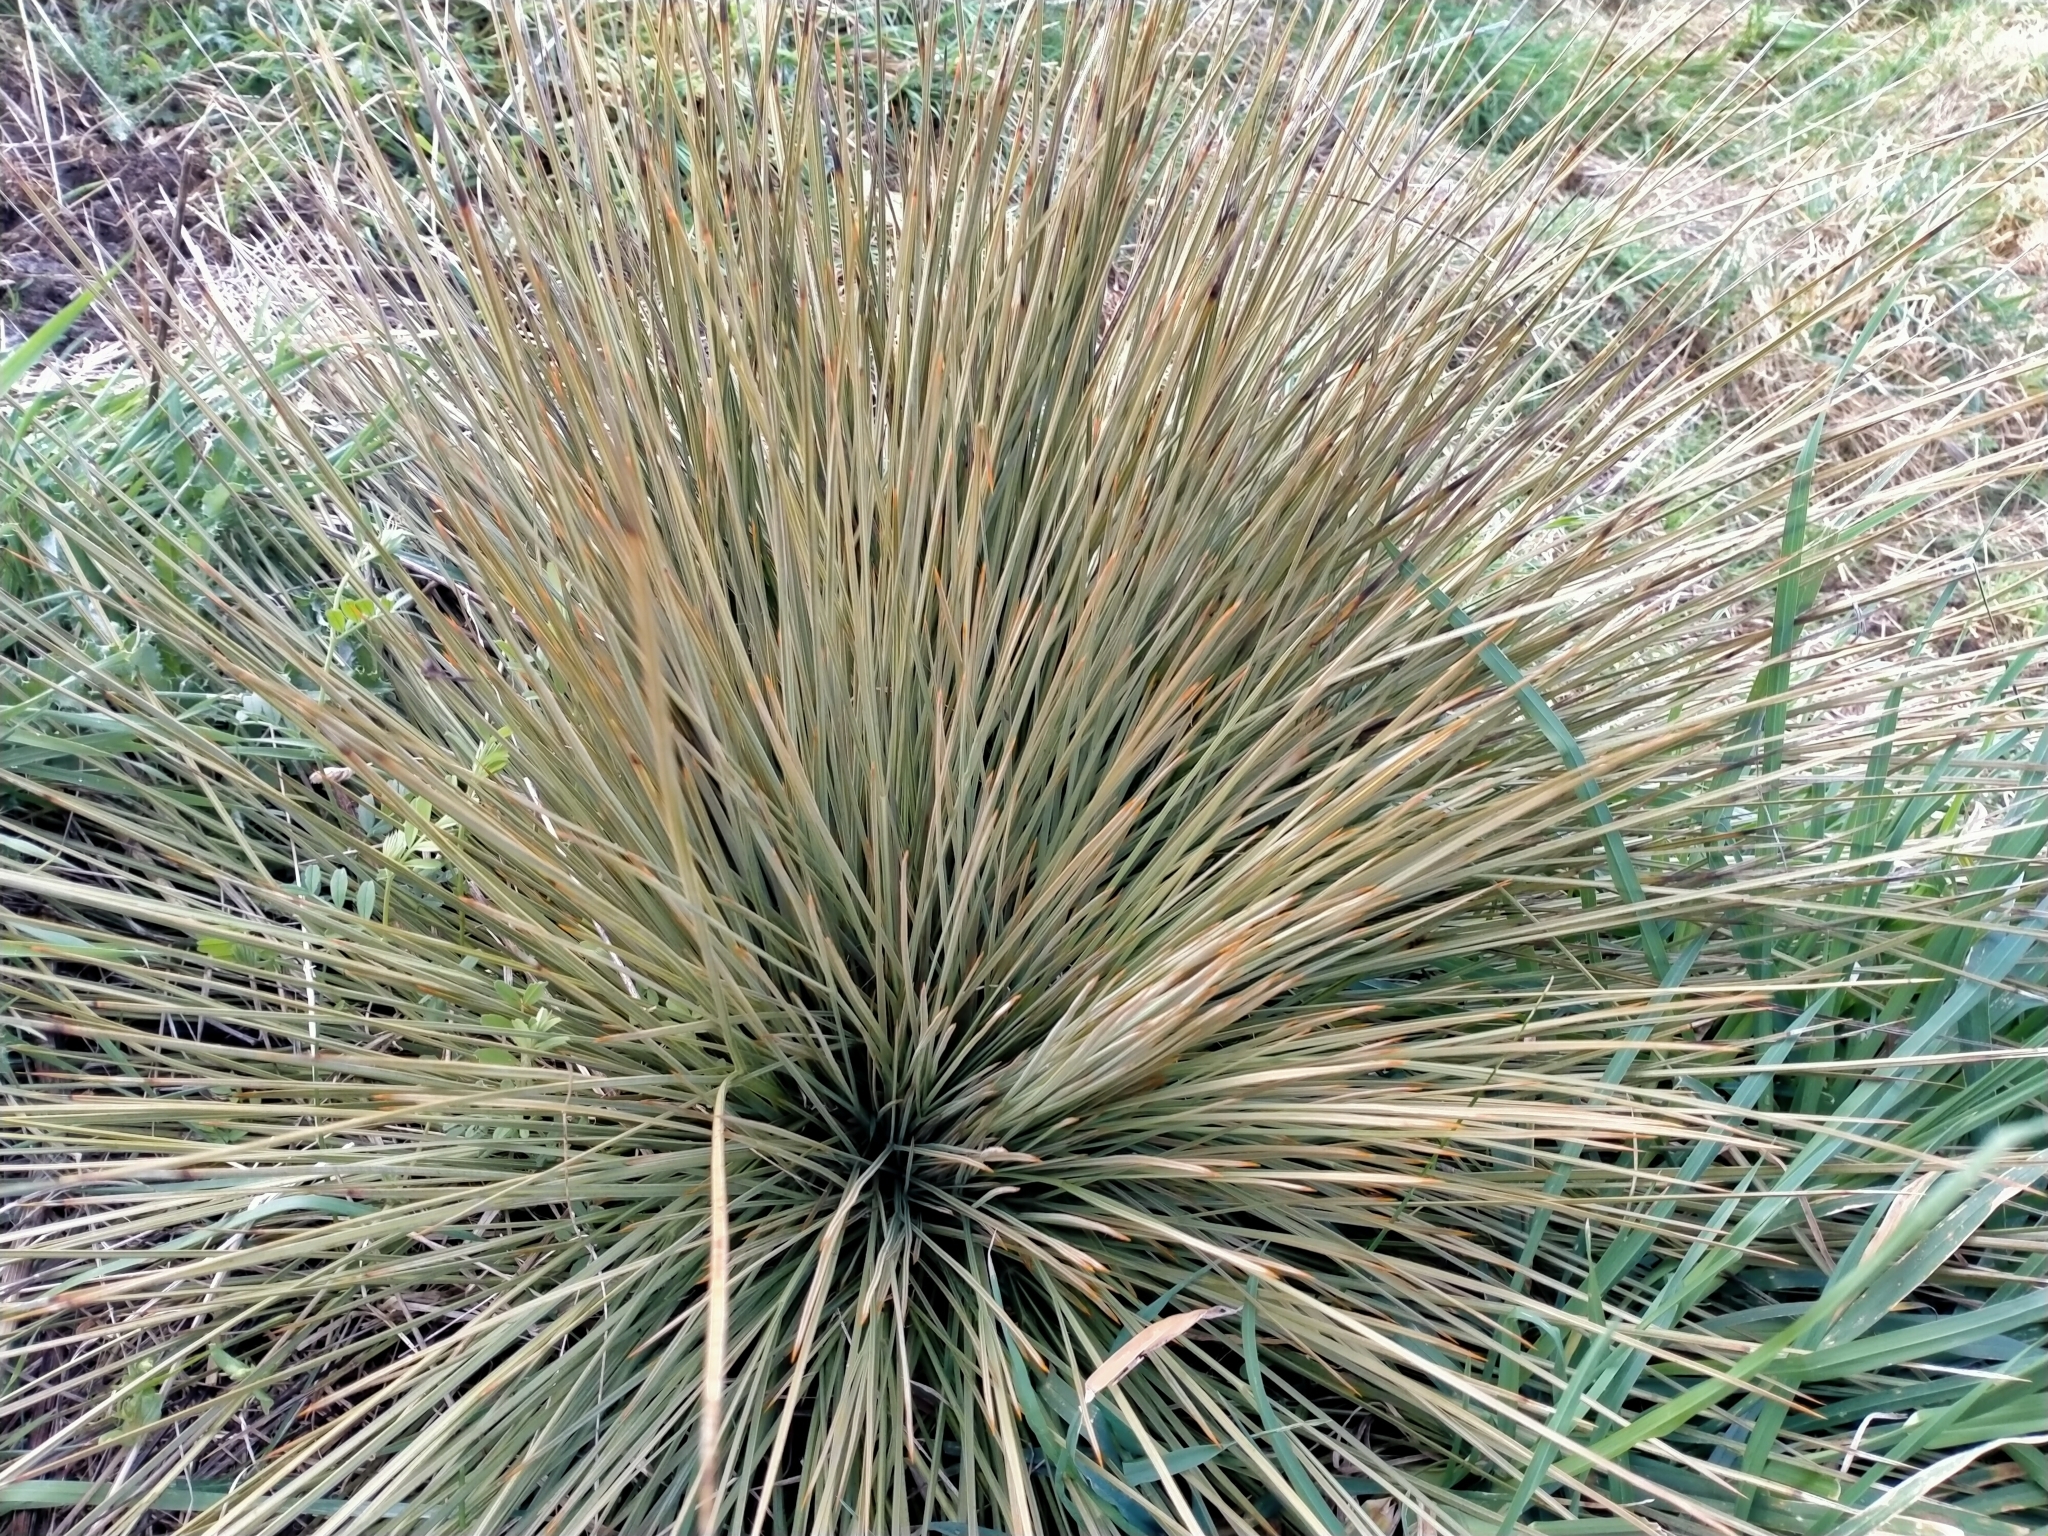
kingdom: Plantae
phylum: Tracheophyta
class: Magnoliopsida
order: Apiales
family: Apiaceae
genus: Aciphylla
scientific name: Aciphylla subflabellata
